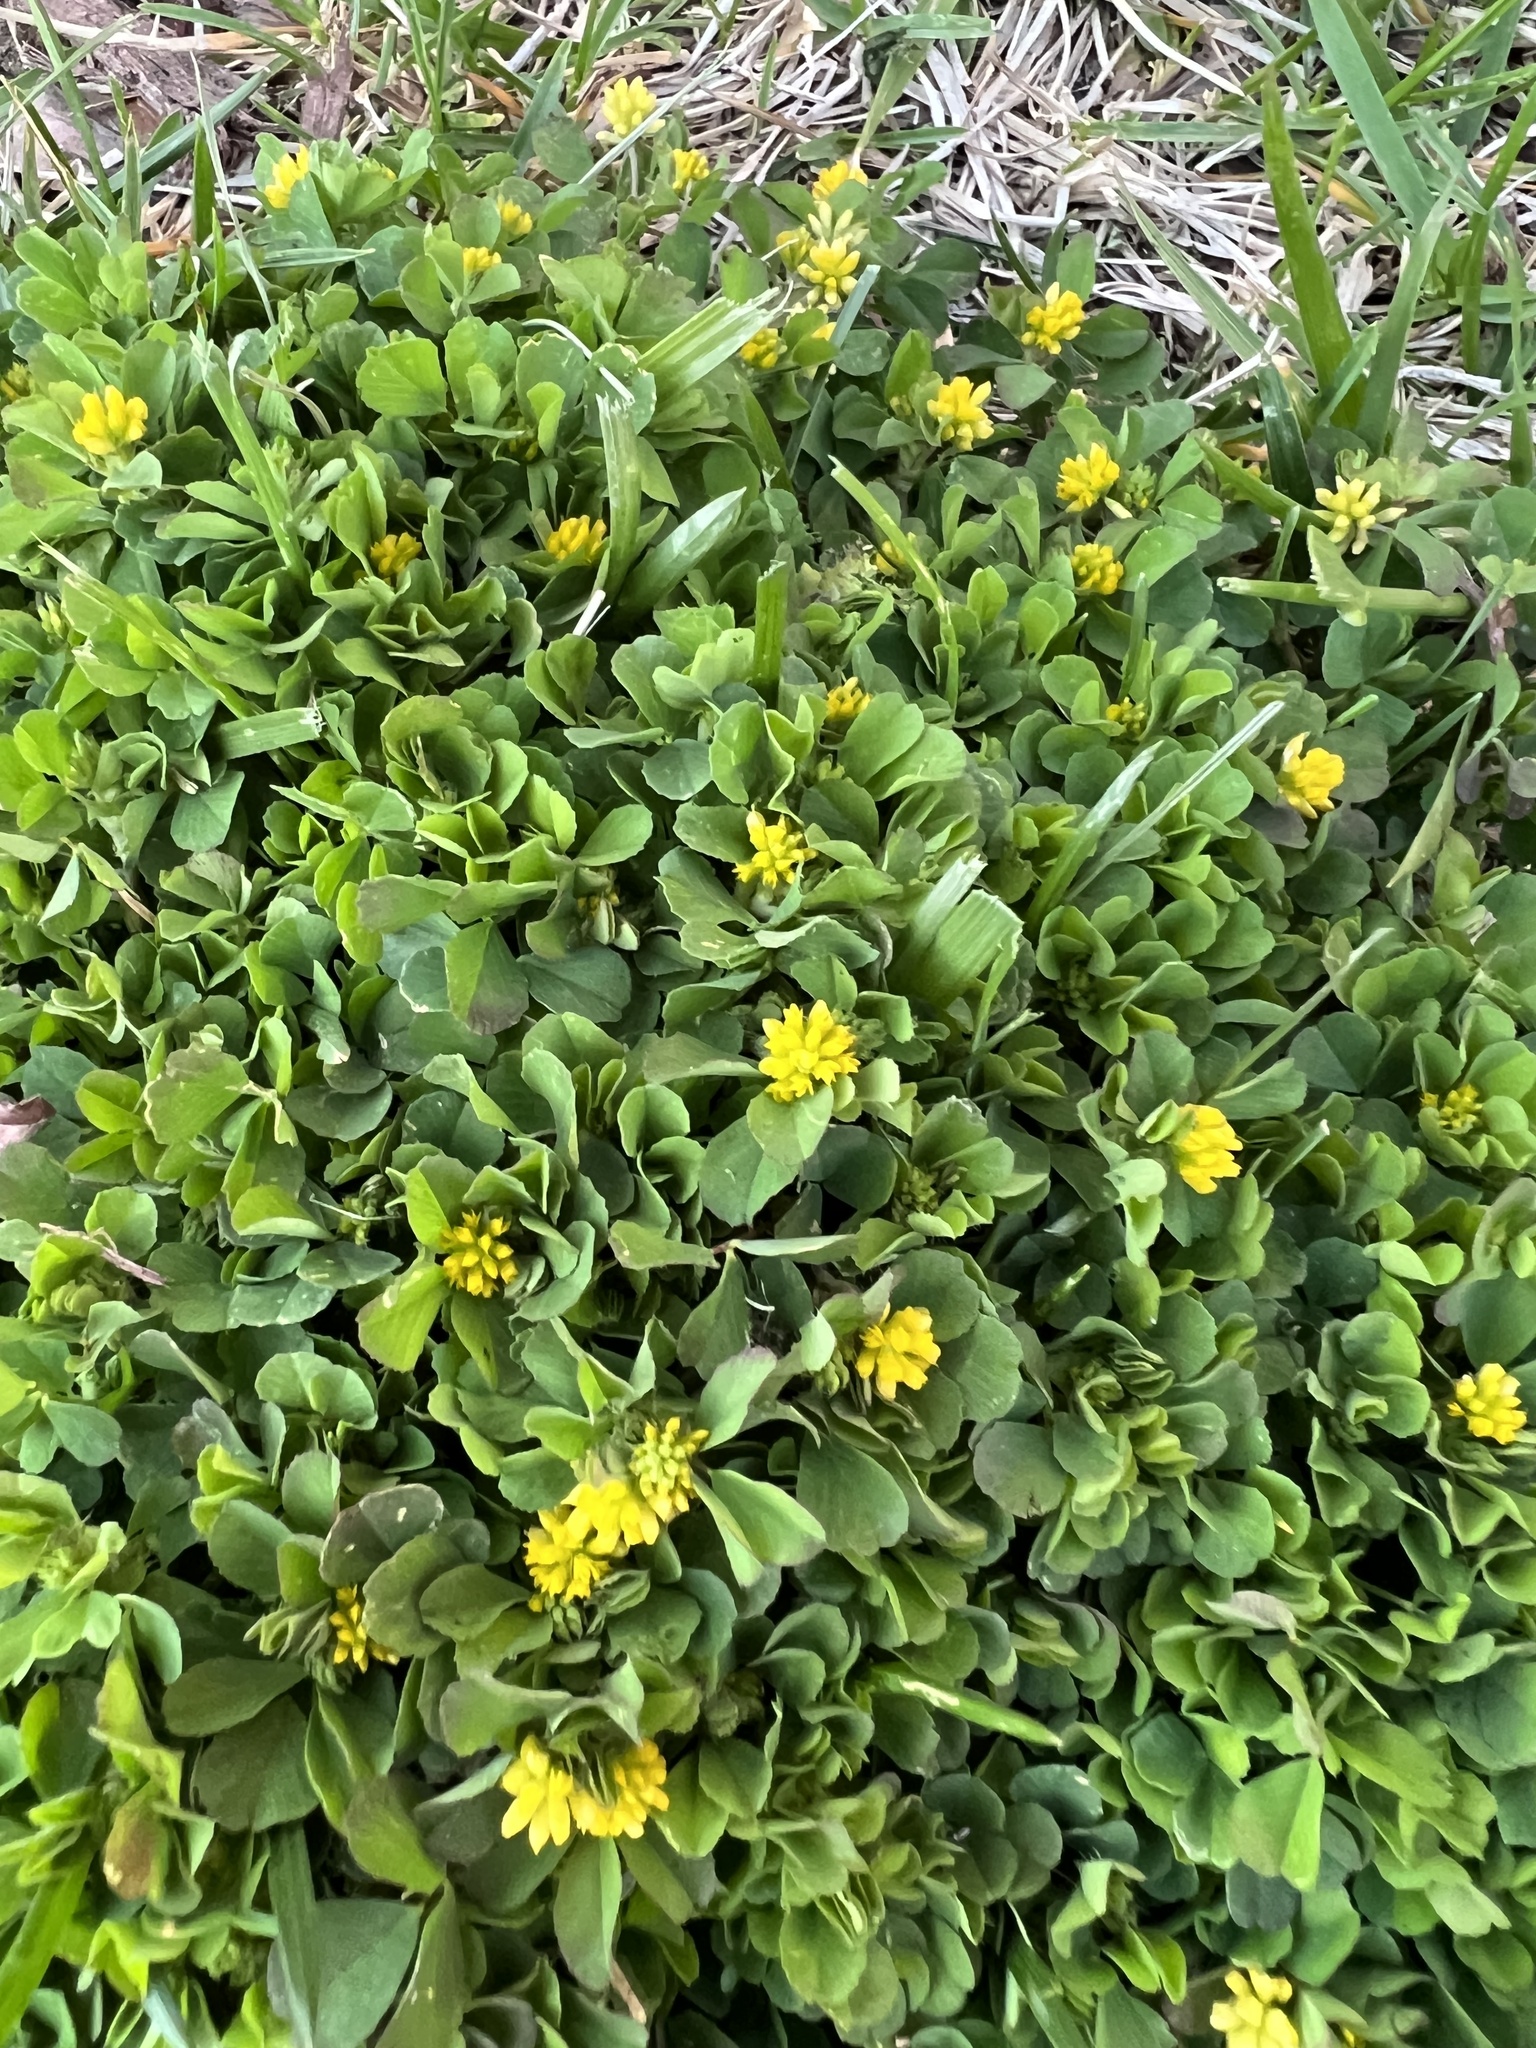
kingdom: Plantae
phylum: Tracheophyta
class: Magnoliopsida
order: Fabales
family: Fabaceae
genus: Trifolium
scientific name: Trifolium dubium
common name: Suckling clover
